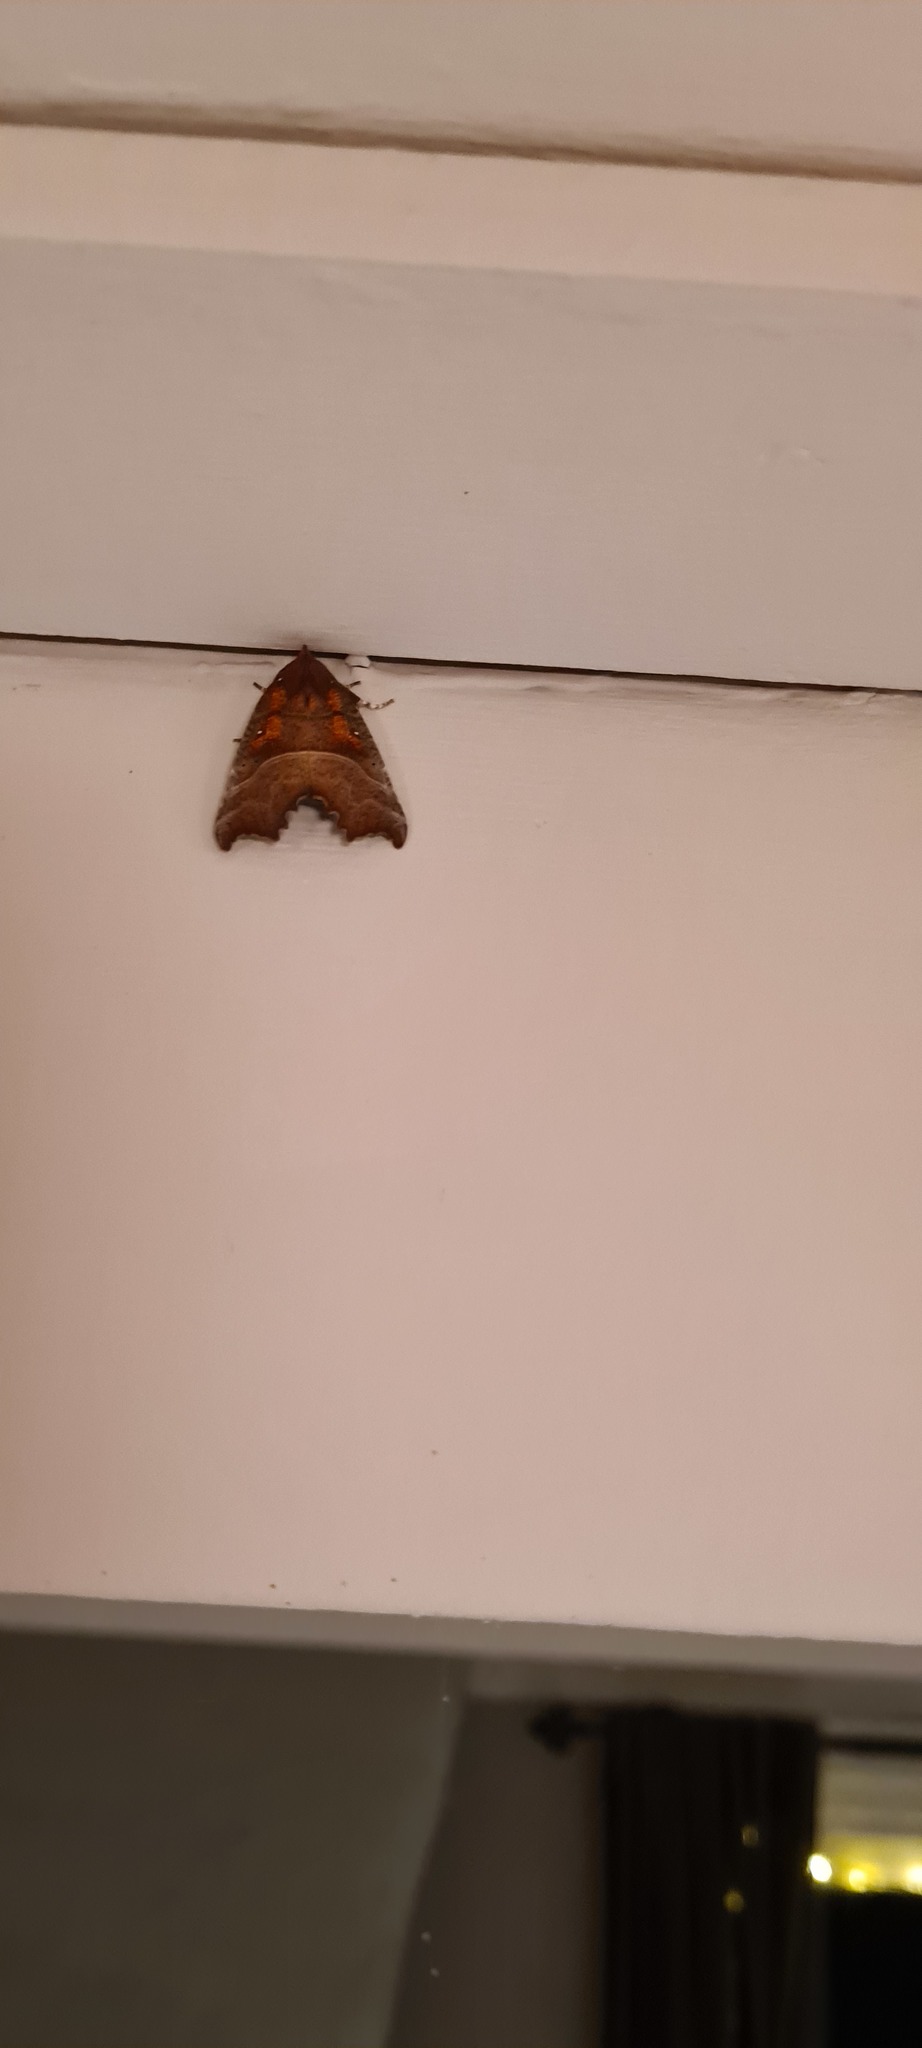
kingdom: Animalia
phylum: Arthropoda
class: Insecta
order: Lepidoptera
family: Erebidae
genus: Scoliopteryx
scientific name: Scoliopteryx libatrix
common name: Herald
